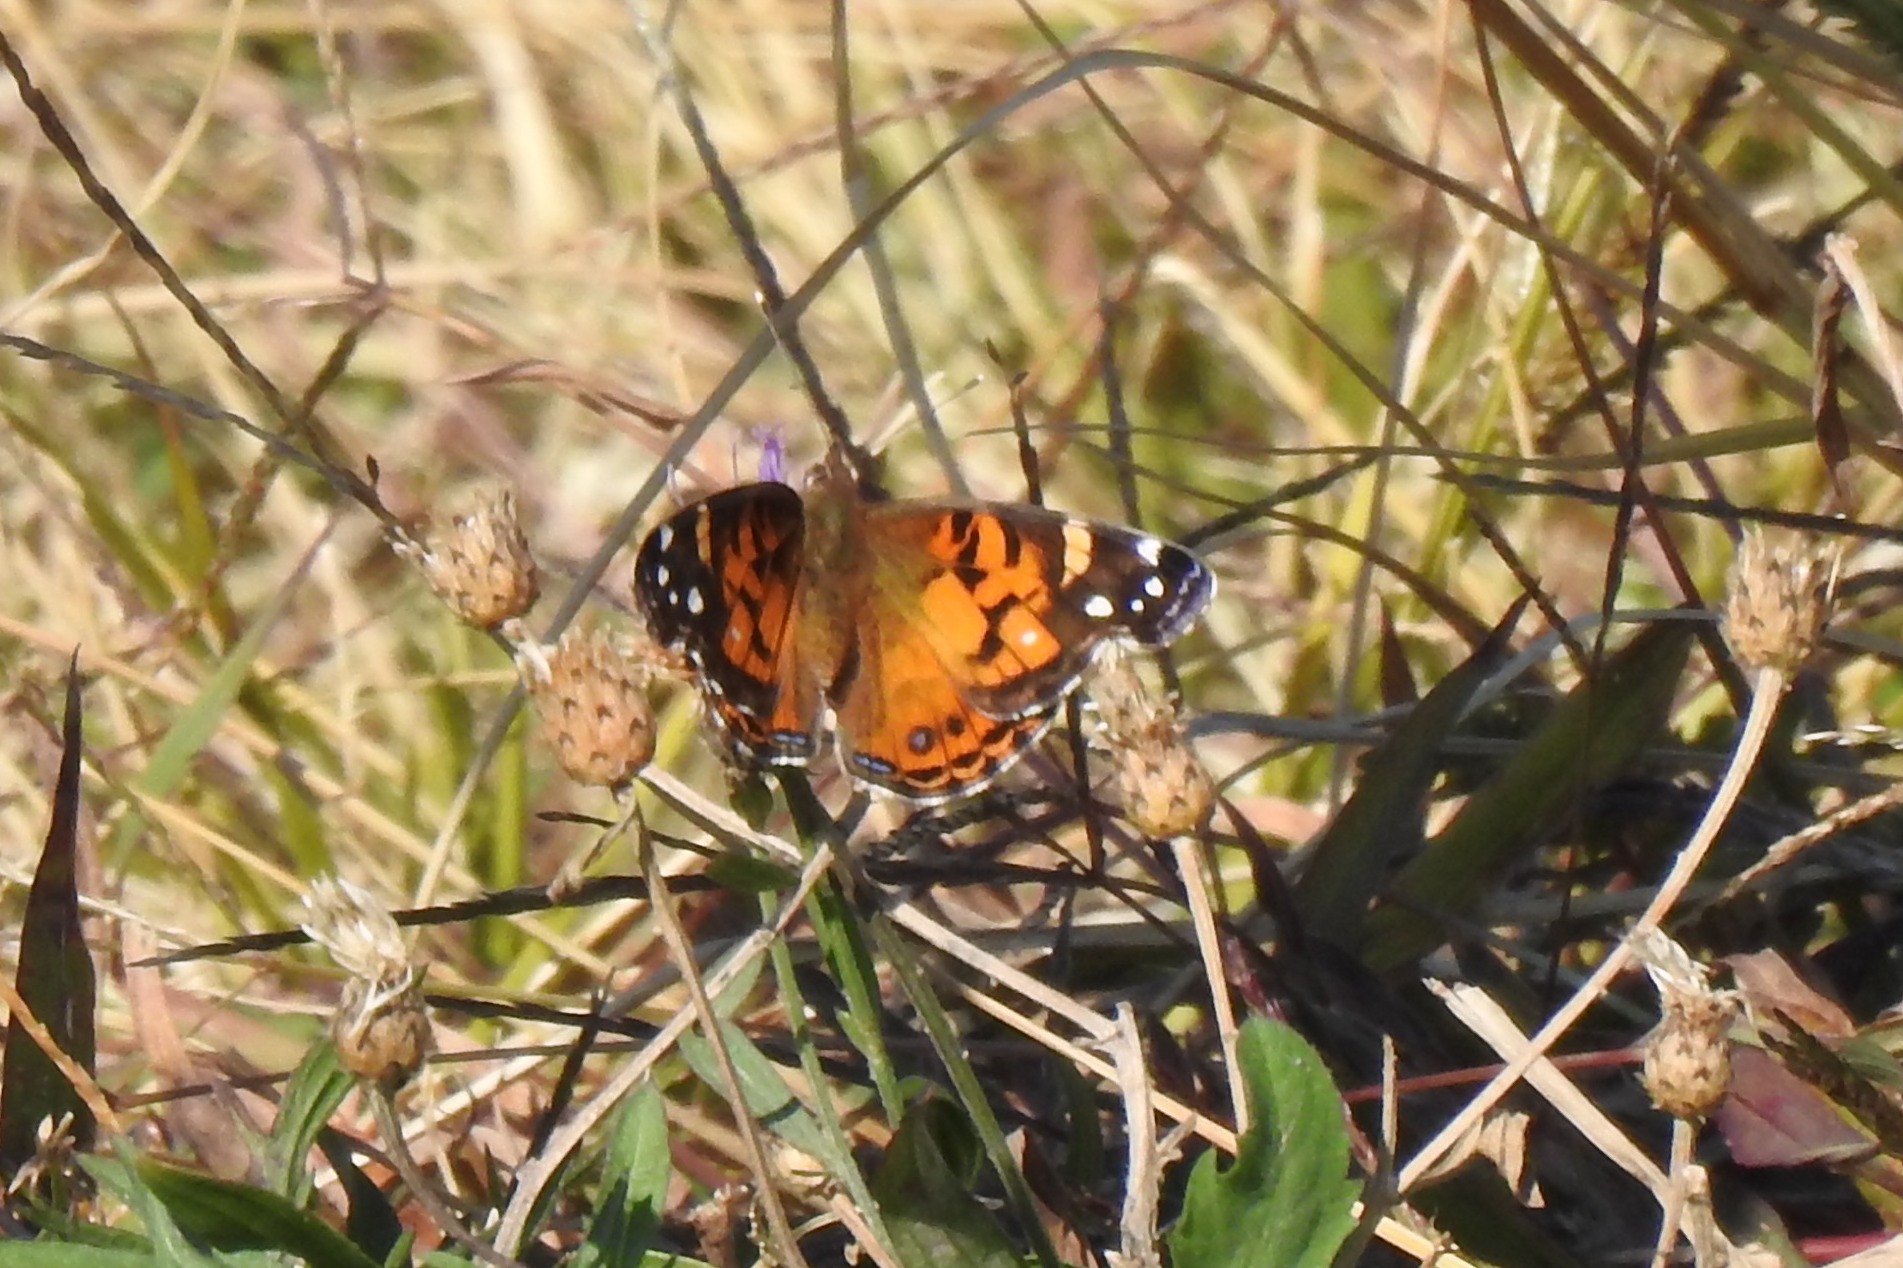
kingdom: Animalia
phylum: Arthropoda
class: Insecta
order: Lepidoptera
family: Nymphalidae
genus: Vanessa
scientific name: Vanessa virginiensis
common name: American lady
